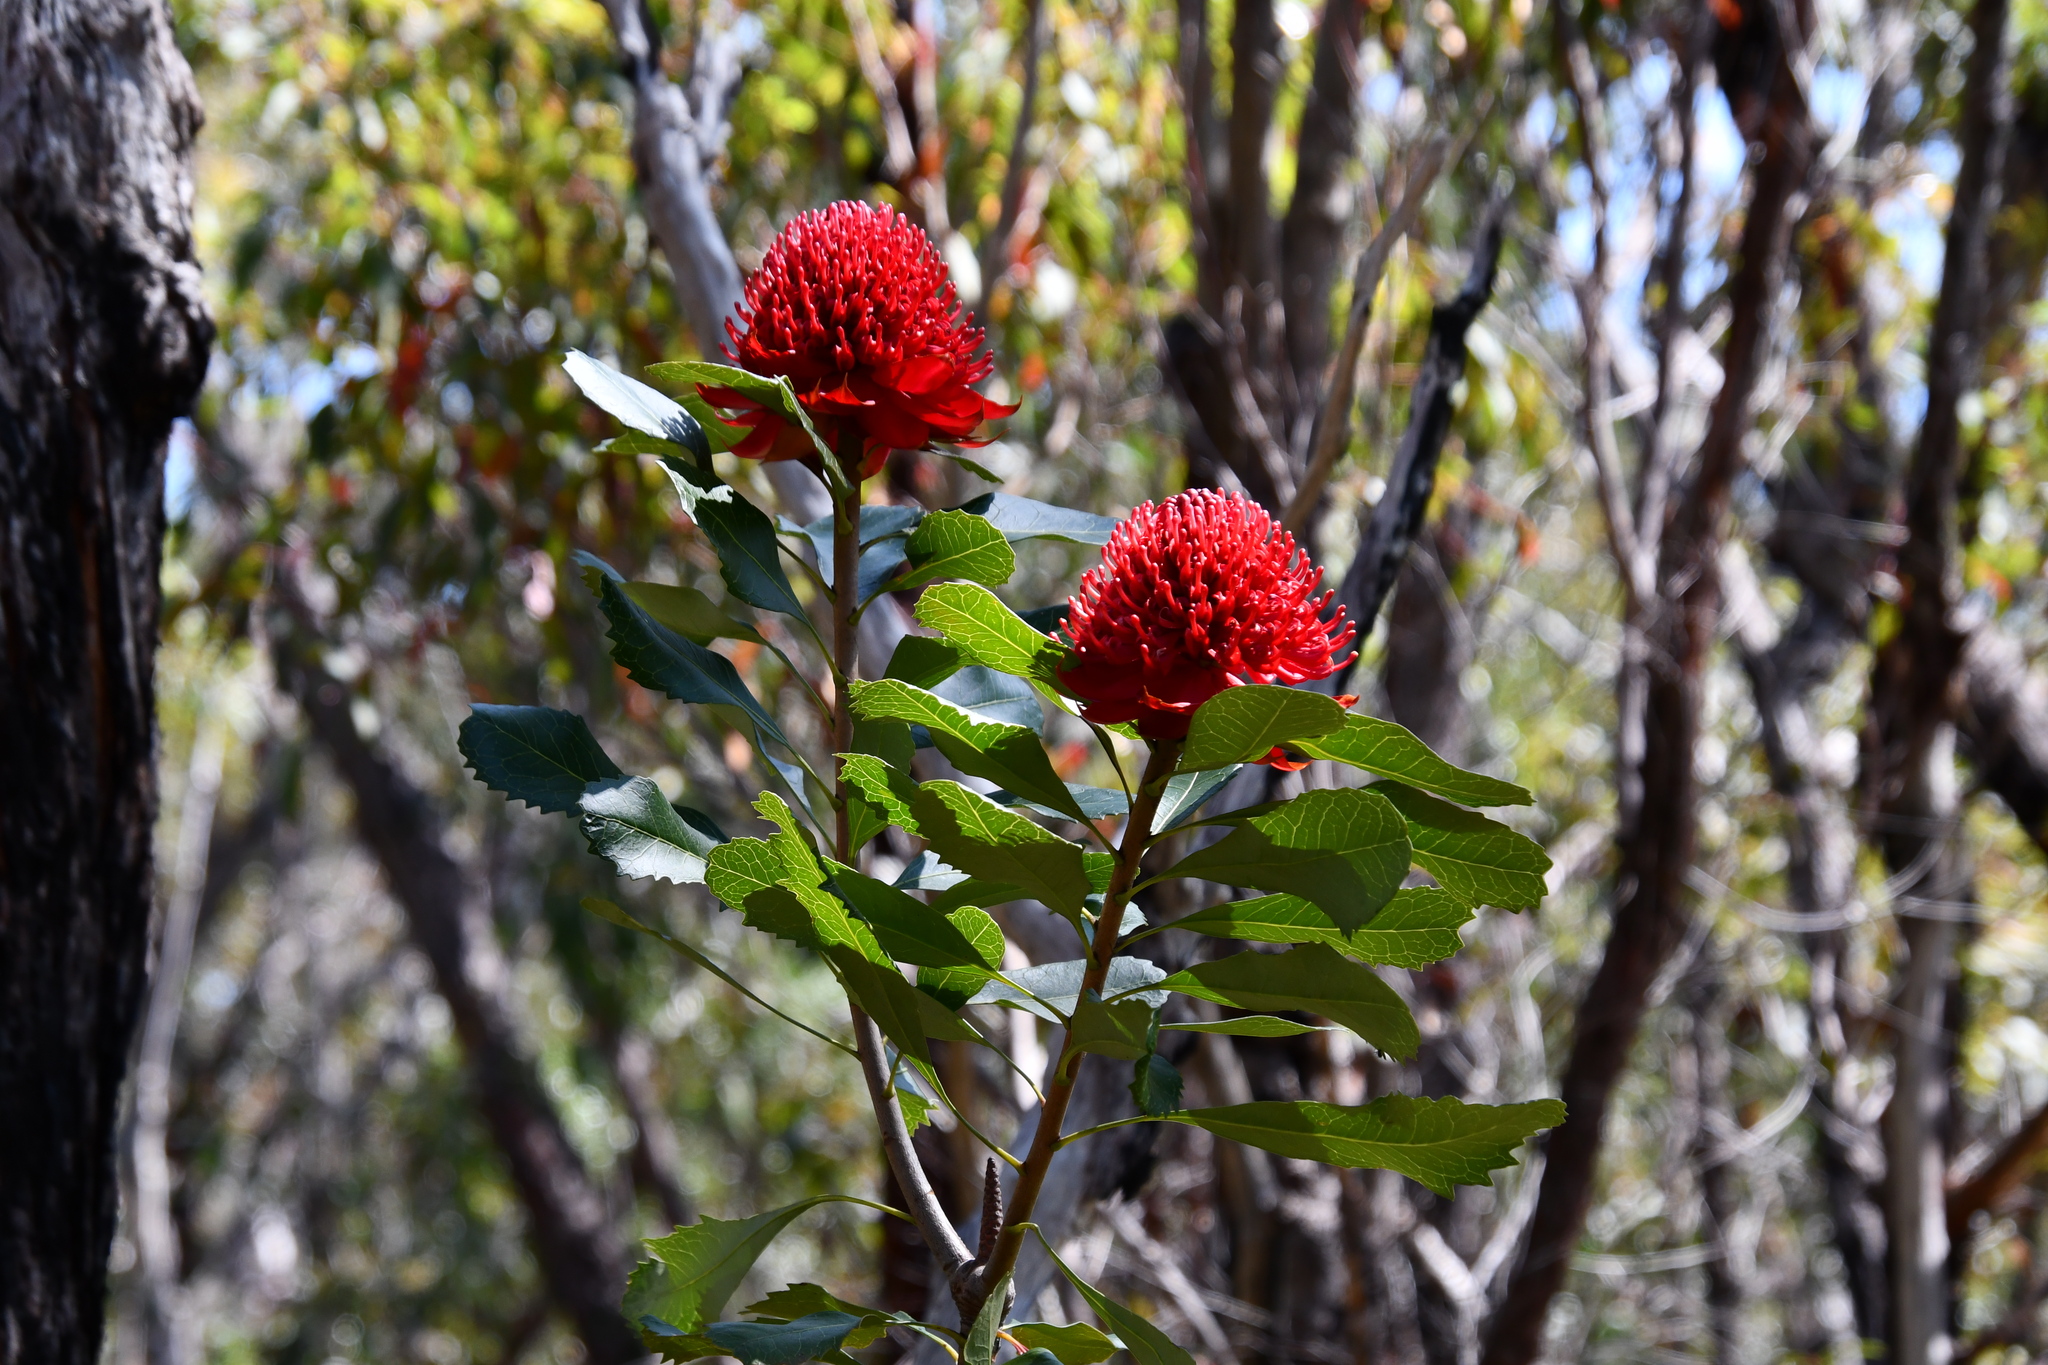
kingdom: Plantae
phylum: Tracheophyta
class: Magnoliopsida
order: Proteales
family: Proteaceae
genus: Telopea
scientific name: Telopea speciosissima
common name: New south wales waratah
